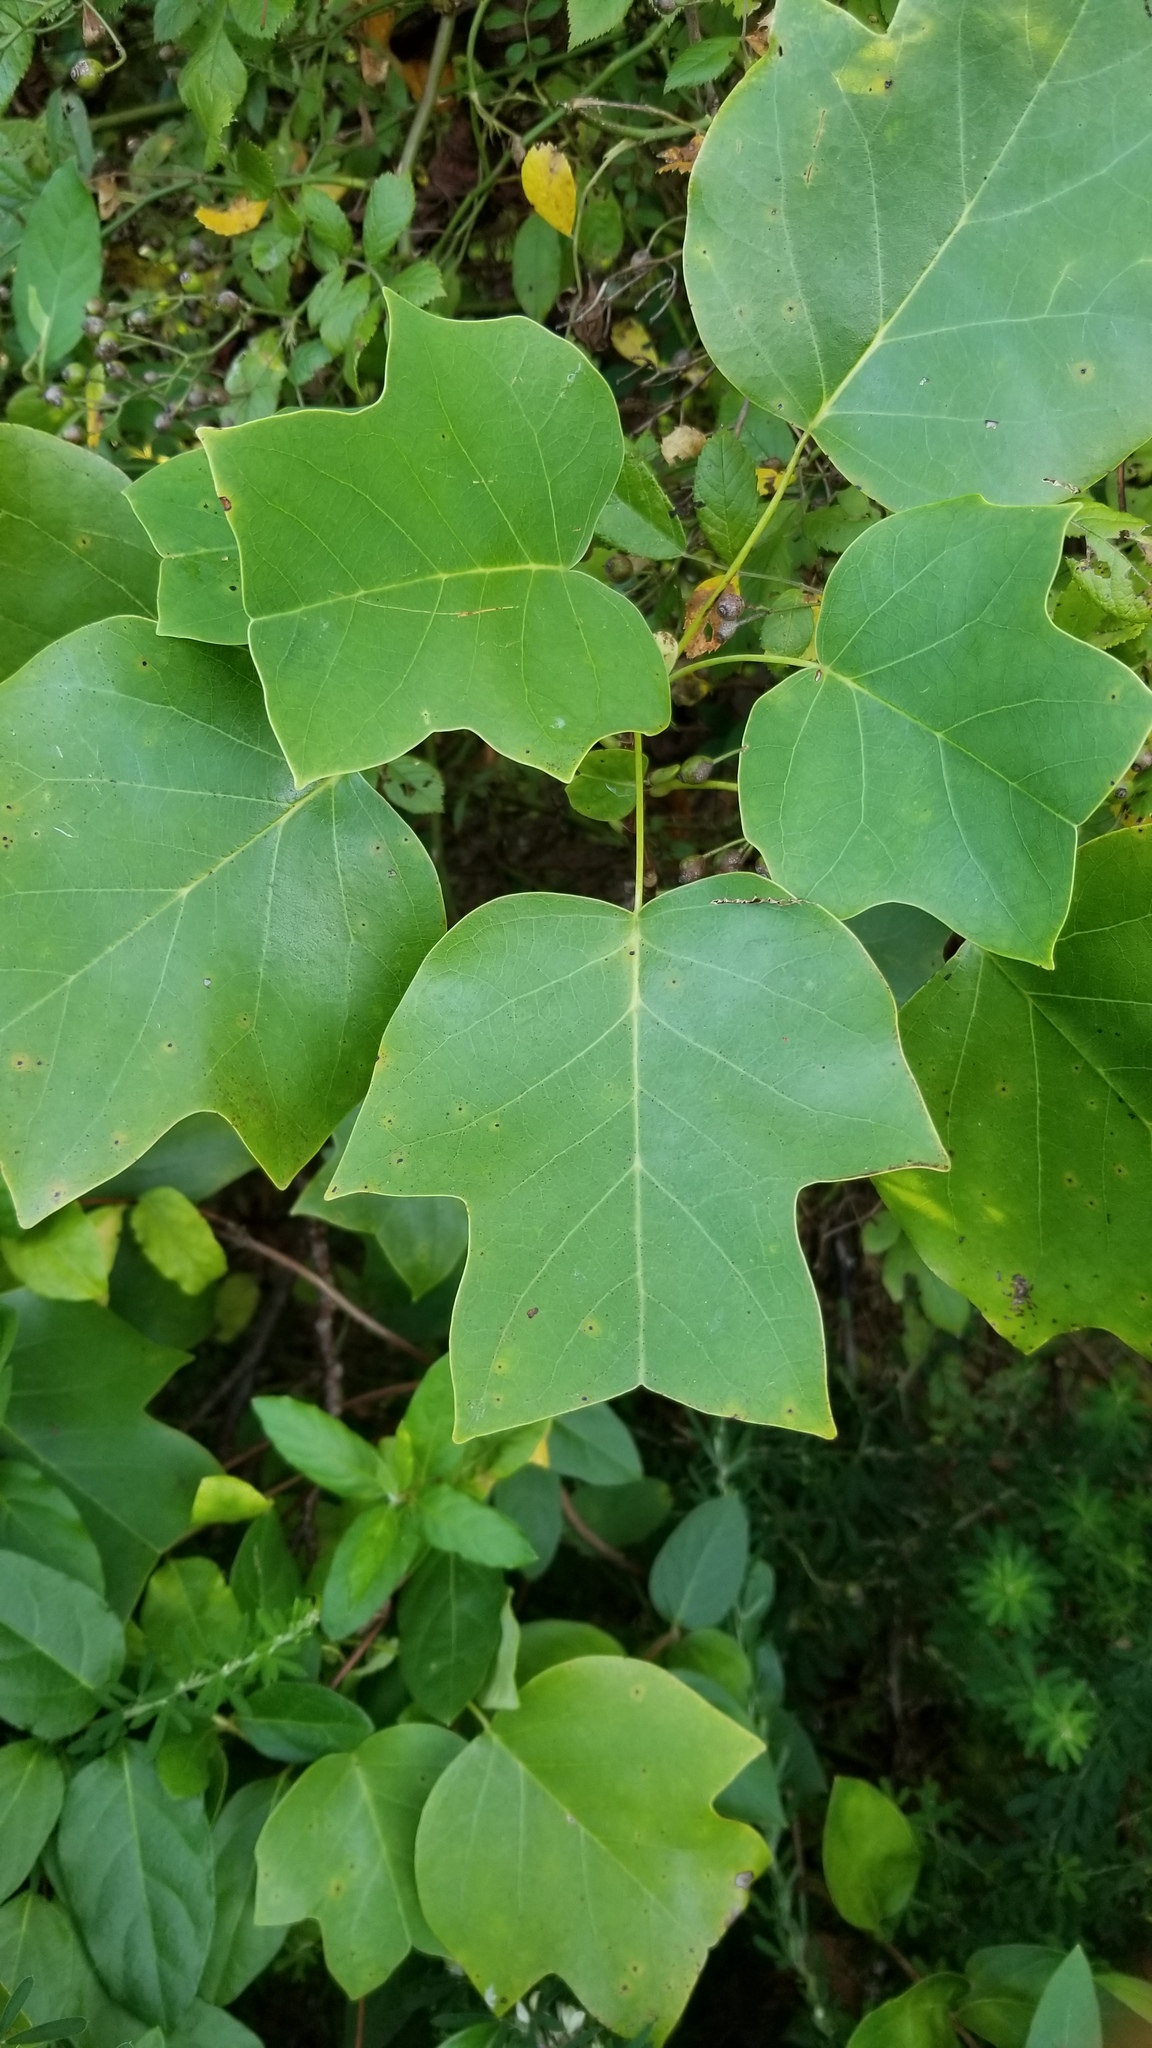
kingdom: Plantae
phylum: Tracheophyta
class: Magnoliopsida
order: Magnoliales
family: Magnoliaceae
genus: Liriodendron
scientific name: Liriodendron tulipifera
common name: Tulip tree
